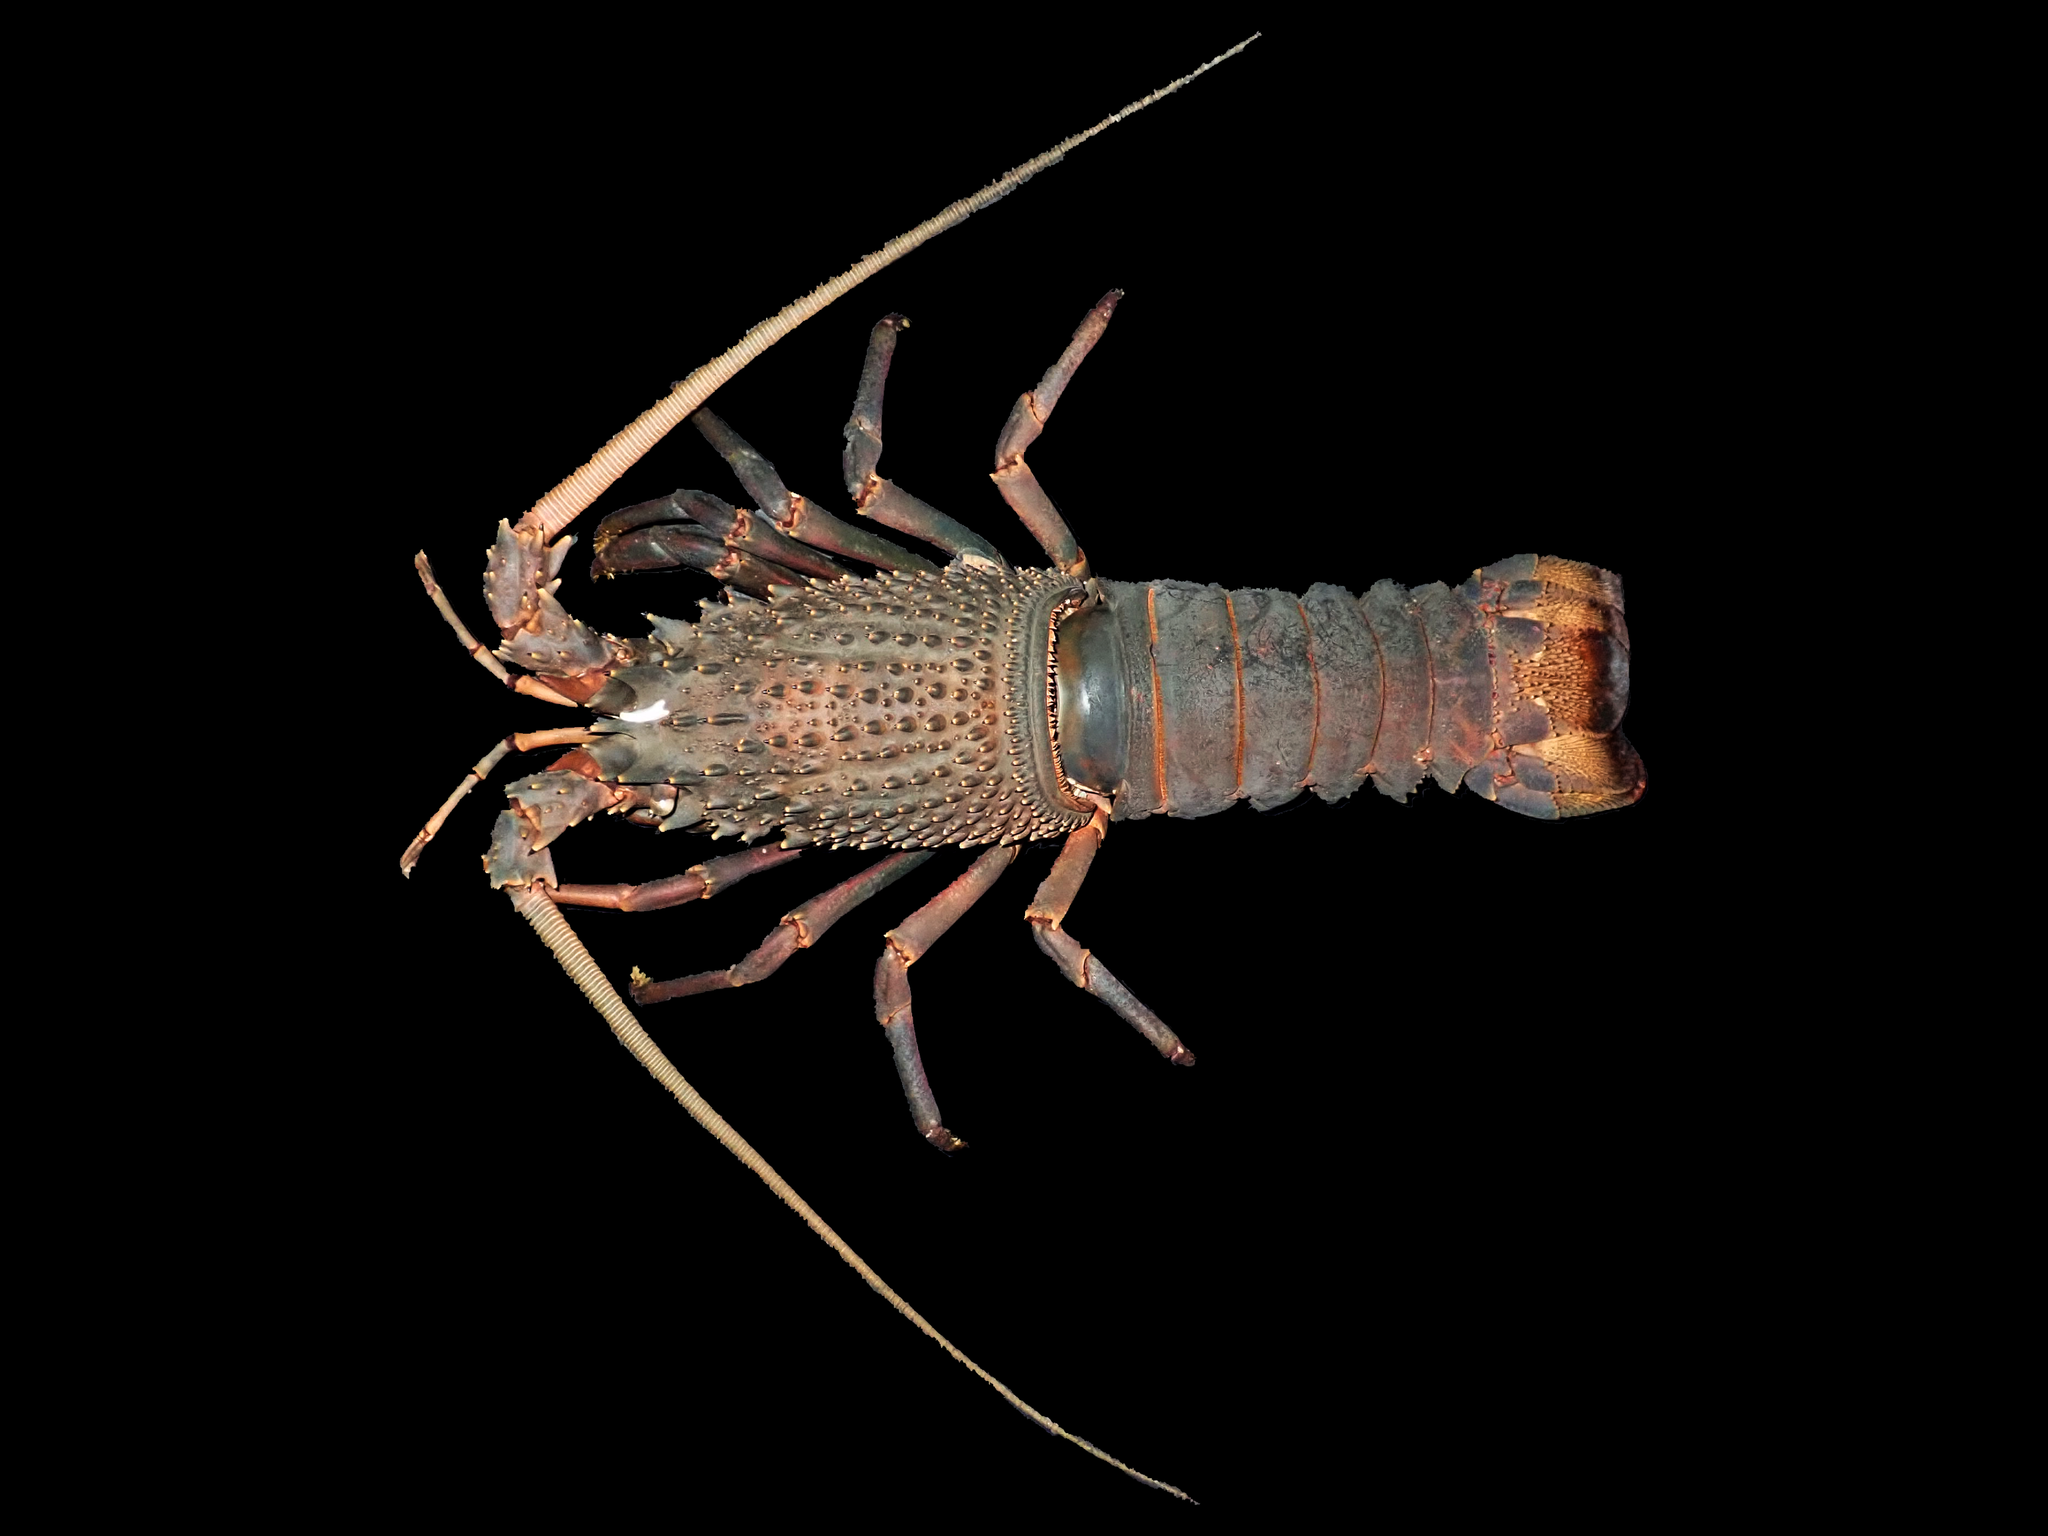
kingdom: Animalia
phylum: Arthropoda
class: Malacostraca
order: Decapoda
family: Palinuridae
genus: Sagmariasus
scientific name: Sagmariasus verreauxi
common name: Green rock lobster
